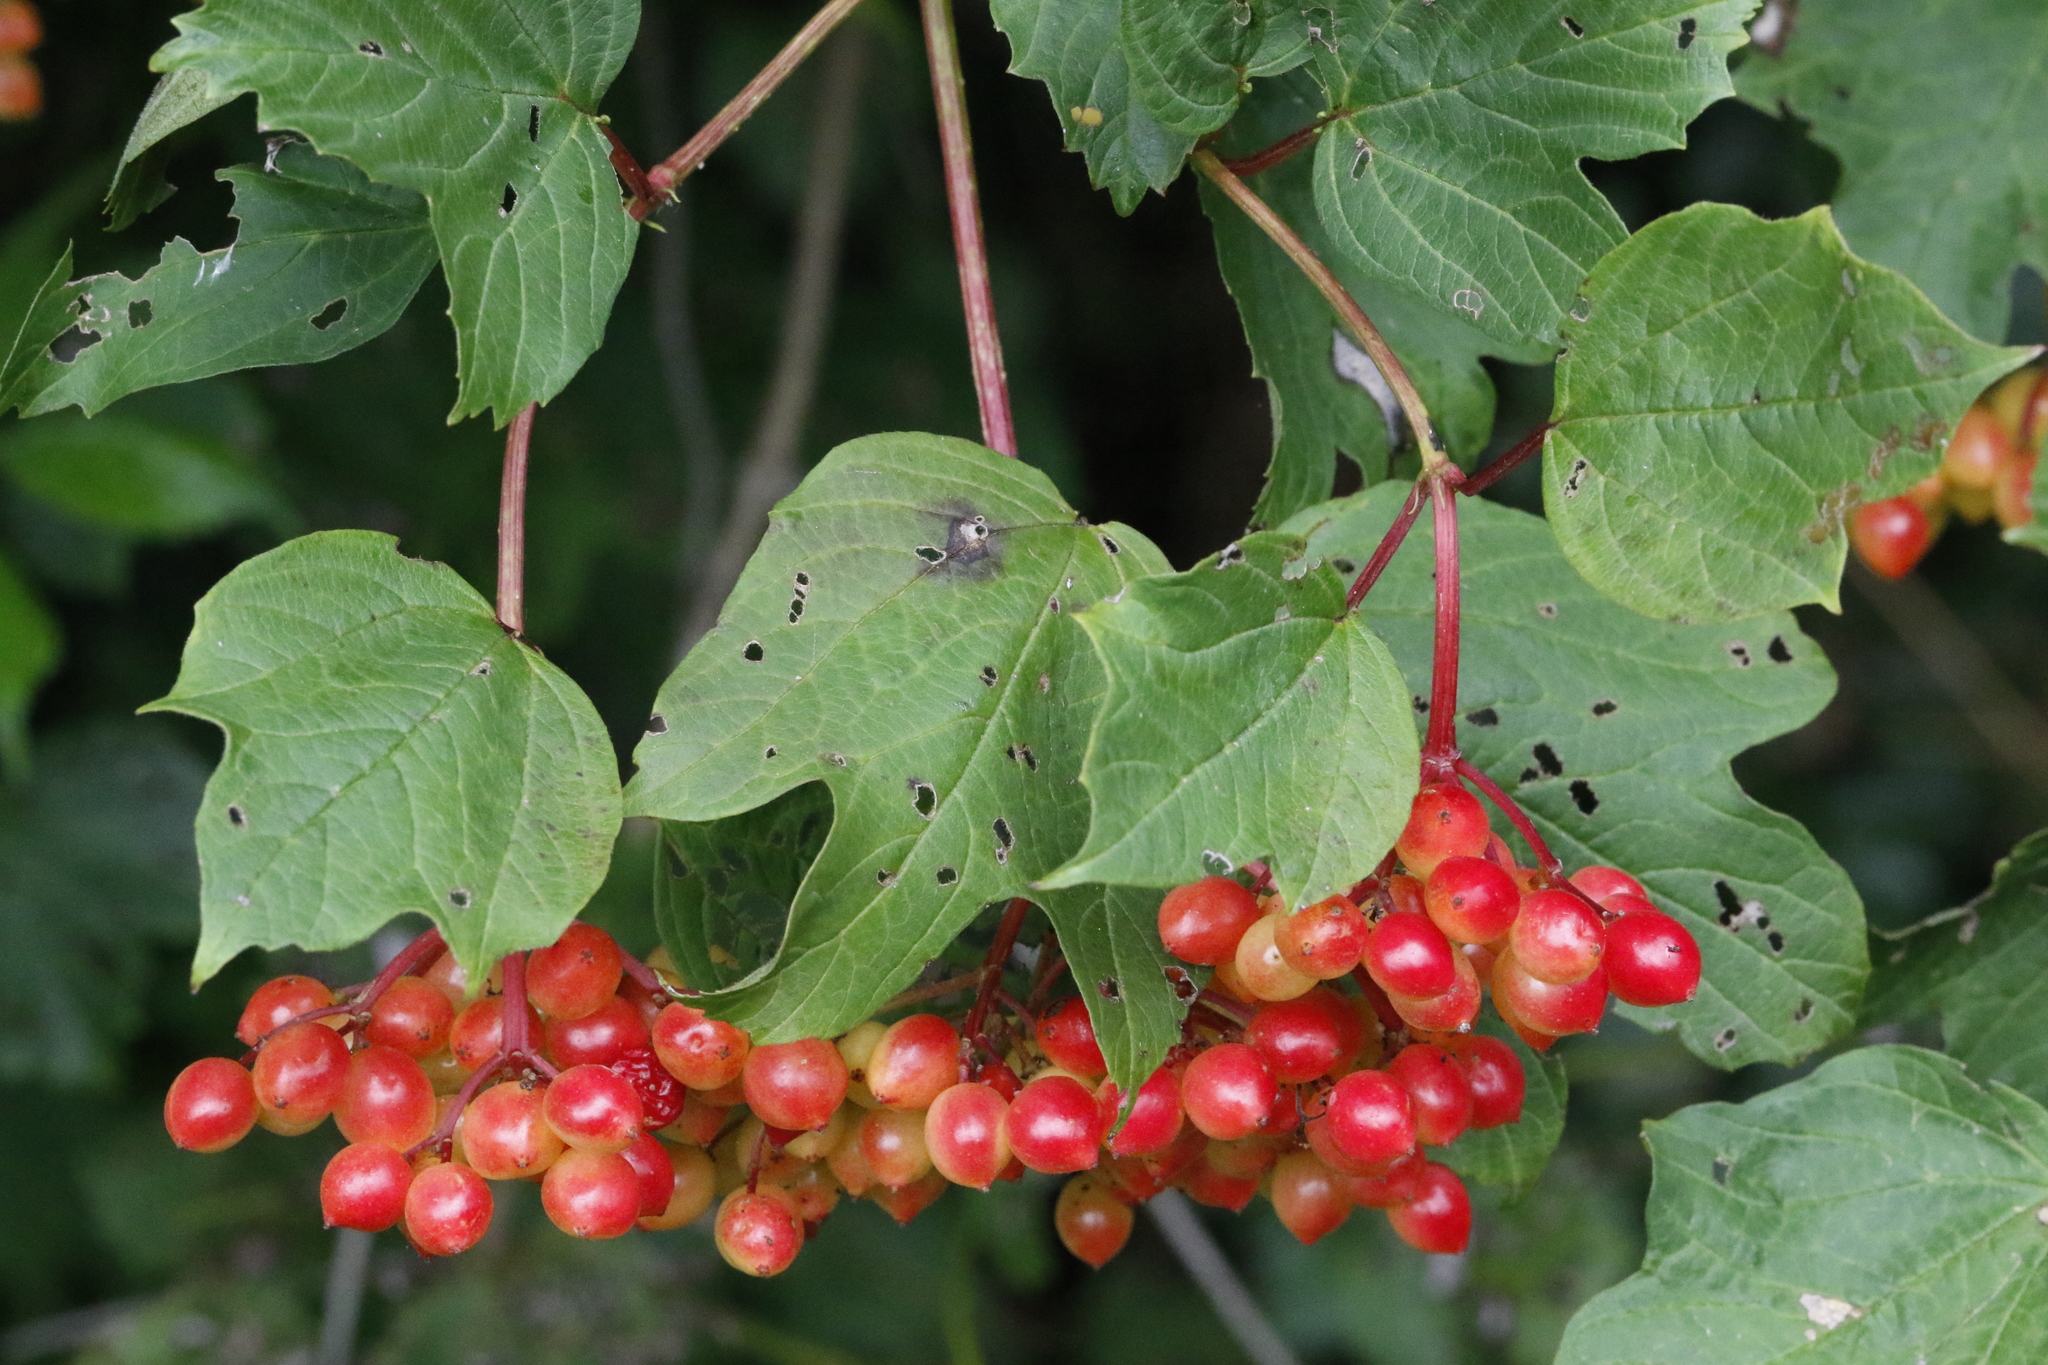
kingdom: Plantae
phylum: Tracheophyta
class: Magnoliopsida
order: Dipsacales
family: Viburnaceae
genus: Viburnum
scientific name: Viburnum opulus
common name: Guelder-rose
